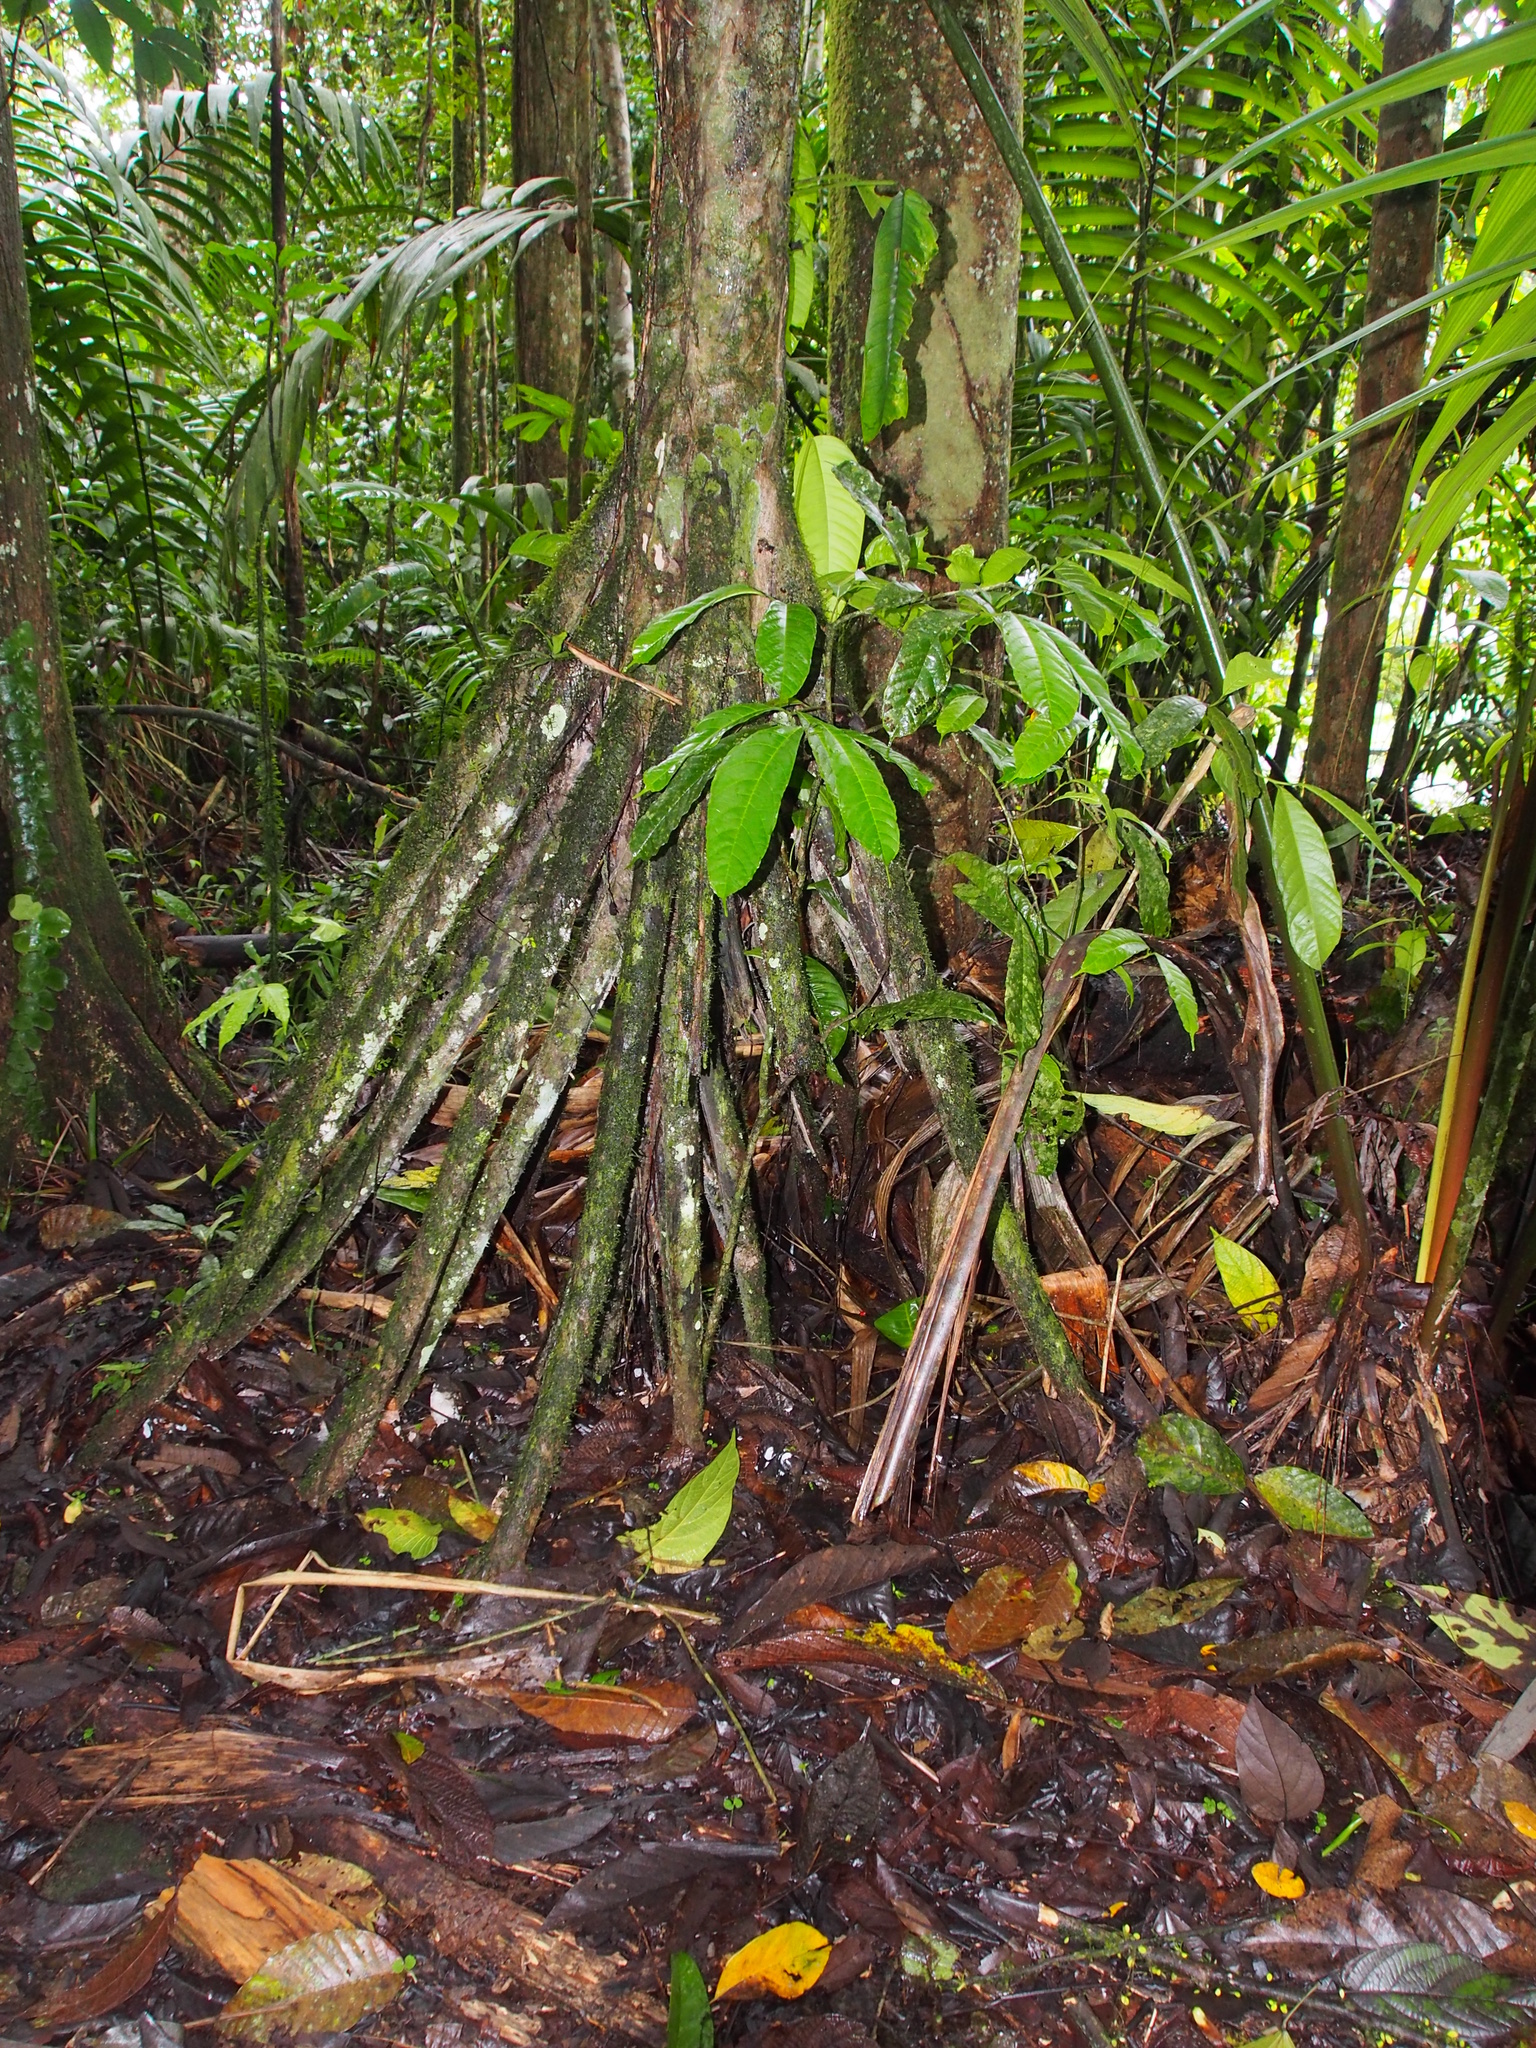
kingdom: Plantae
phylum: Tracheophyta
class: Liliopsida
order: Arecales
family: Arecaceae
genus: Socratea
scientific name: Socratea exorrhiza
